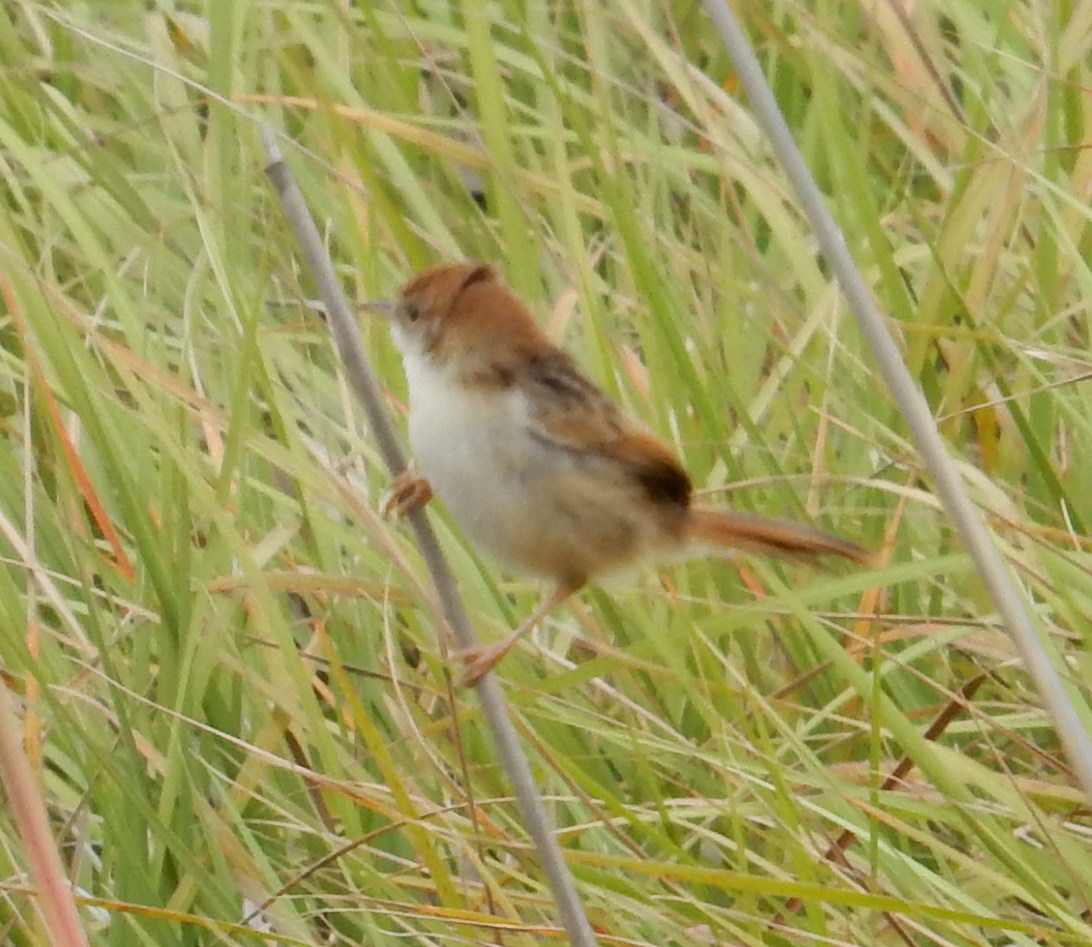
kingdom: Animalia
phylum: Chordata
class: Aves
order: Passeriformes
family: Cisticolidae
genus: Cisticola
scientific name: Cisticola tinniens
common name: Levaillant's cisticola
